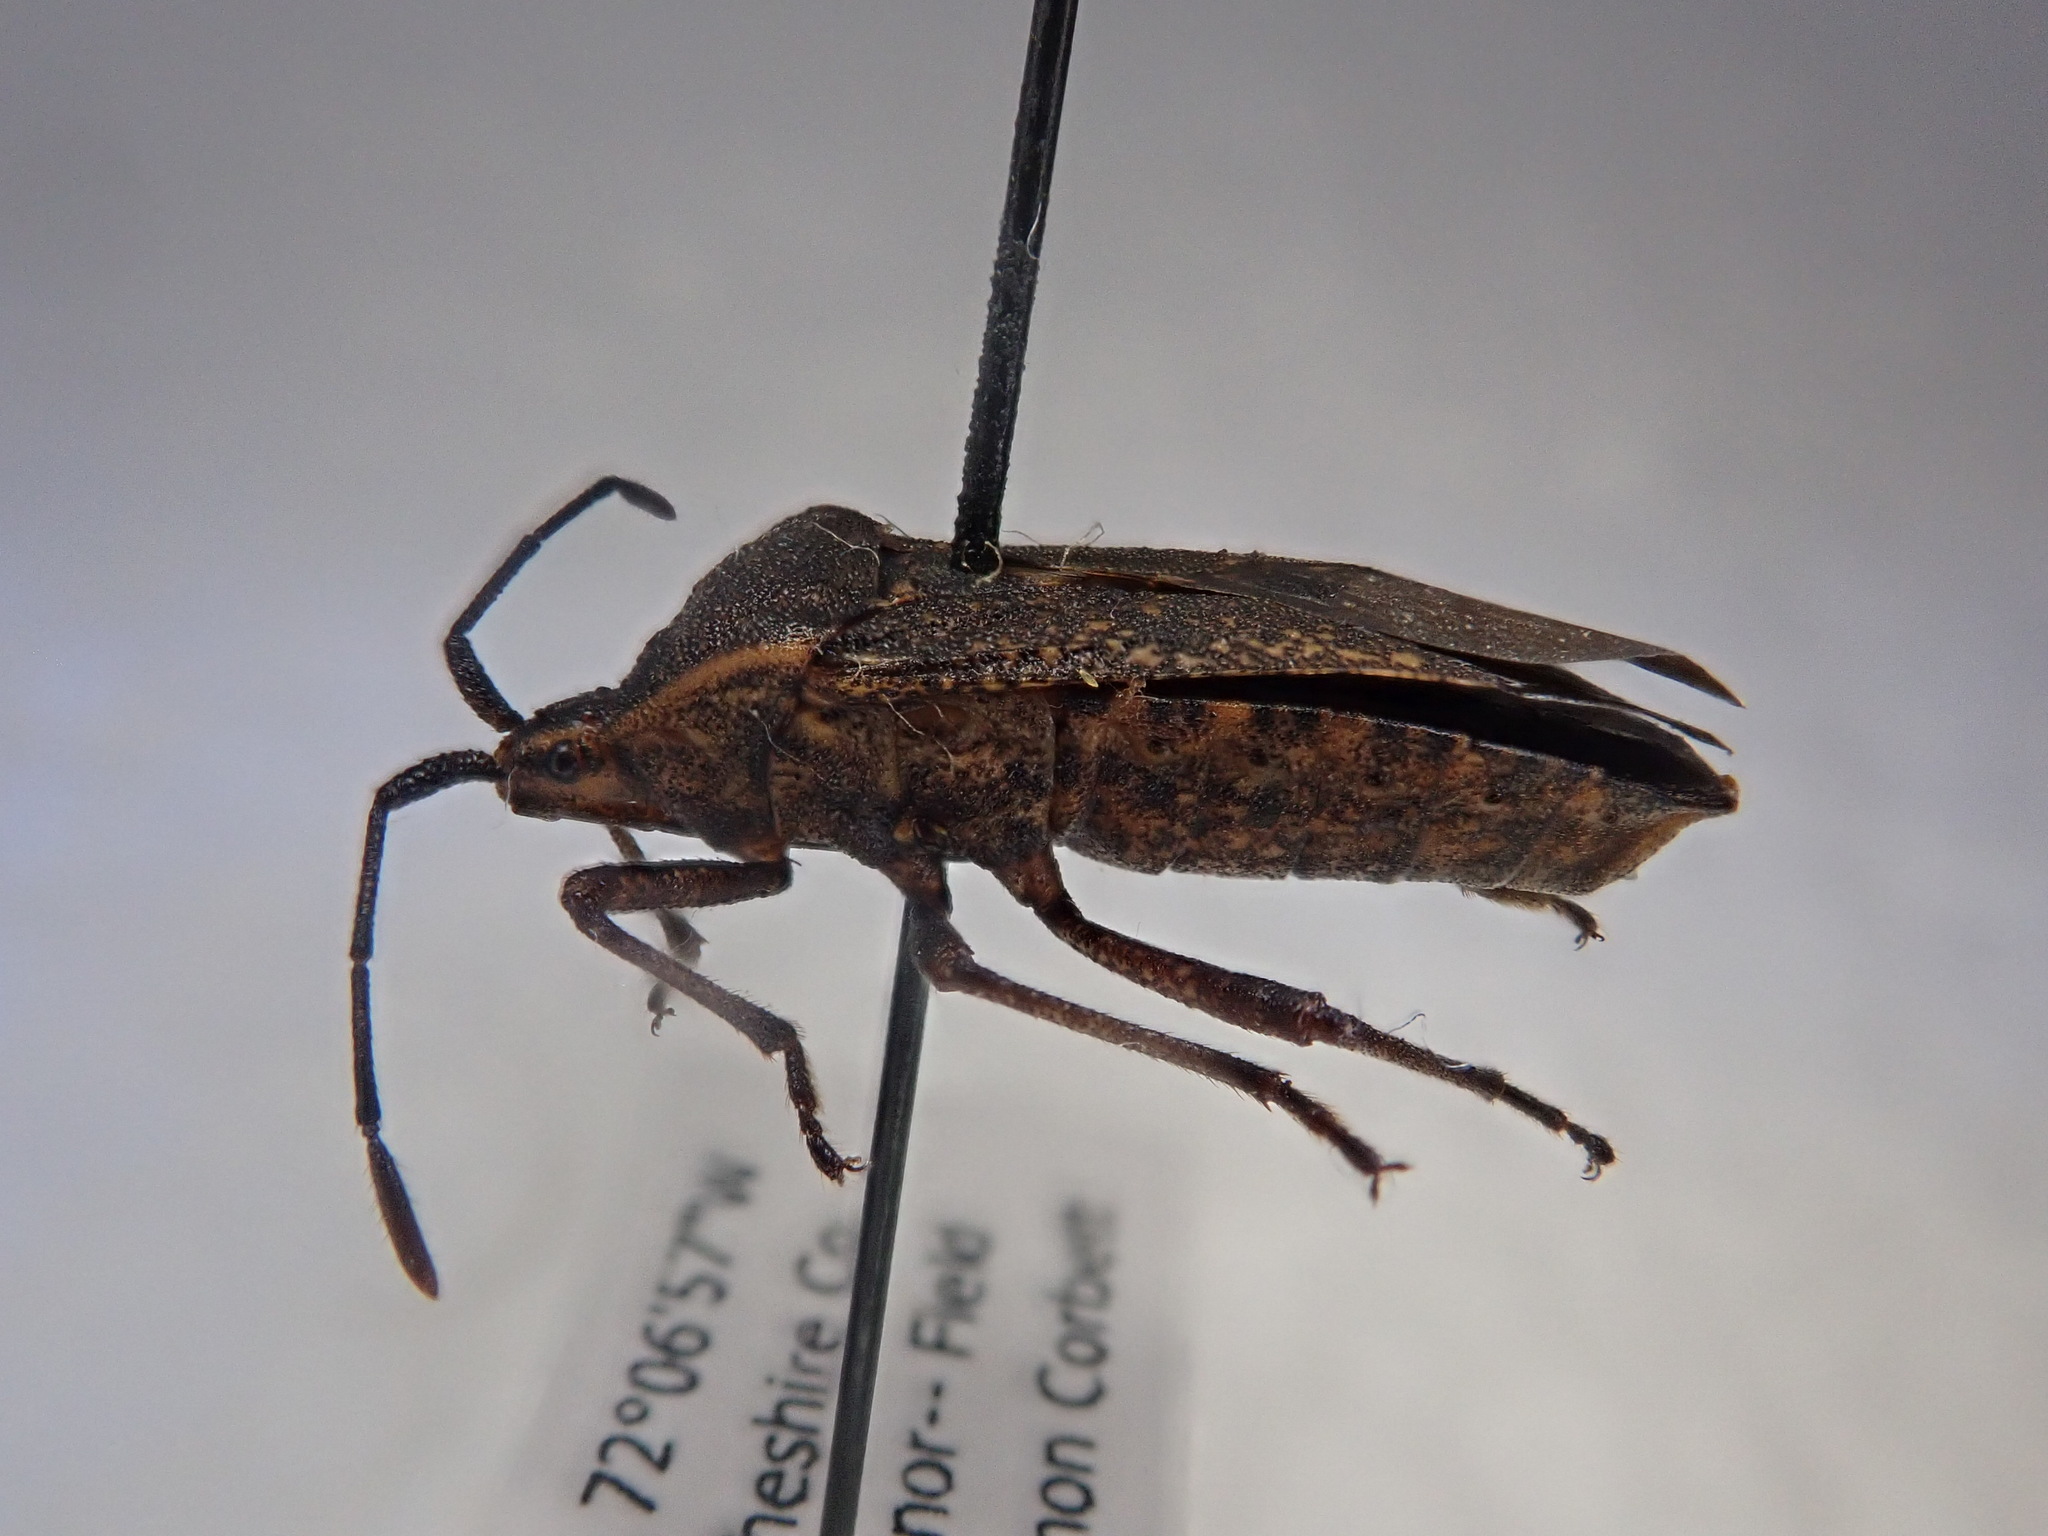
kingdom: Animalia
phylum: Arthropoda
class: Insecta
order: Hemiptera
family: Coreidae
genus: Anasa
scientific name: Anasa tristis
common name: Squash bug
